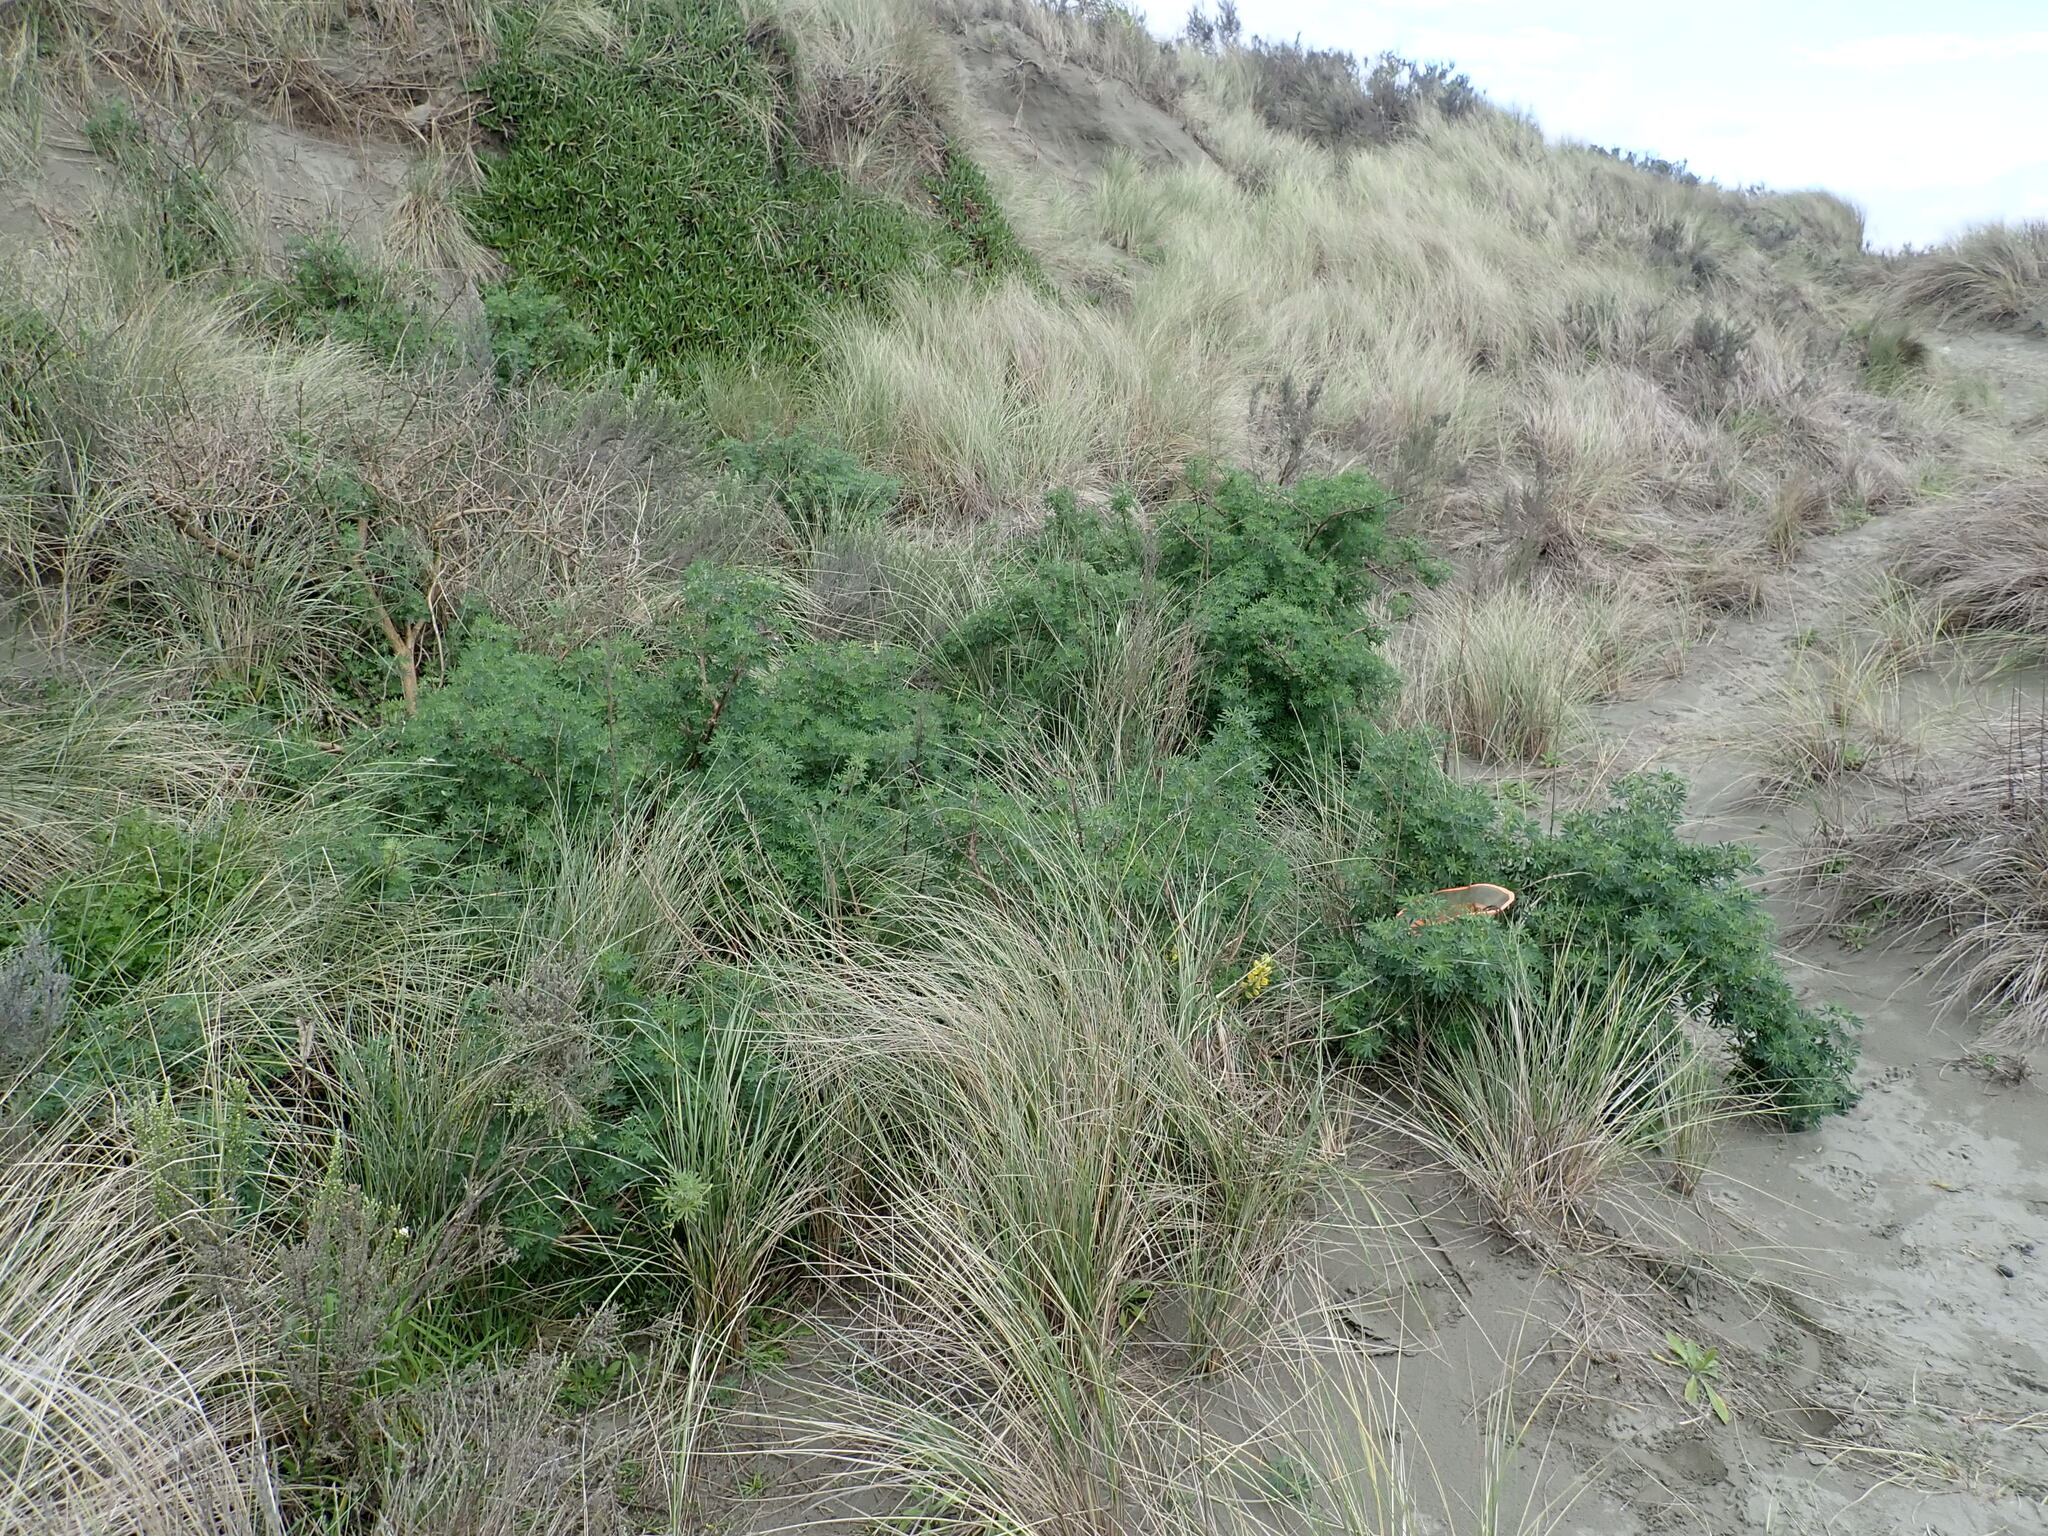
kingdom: Plantae
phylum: Tracheophyta
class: Magnoliopsida
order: Fabales
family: Fabaceae
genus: Lupinus
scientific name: Lupinus arboreus
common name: Yellow bush lupine
